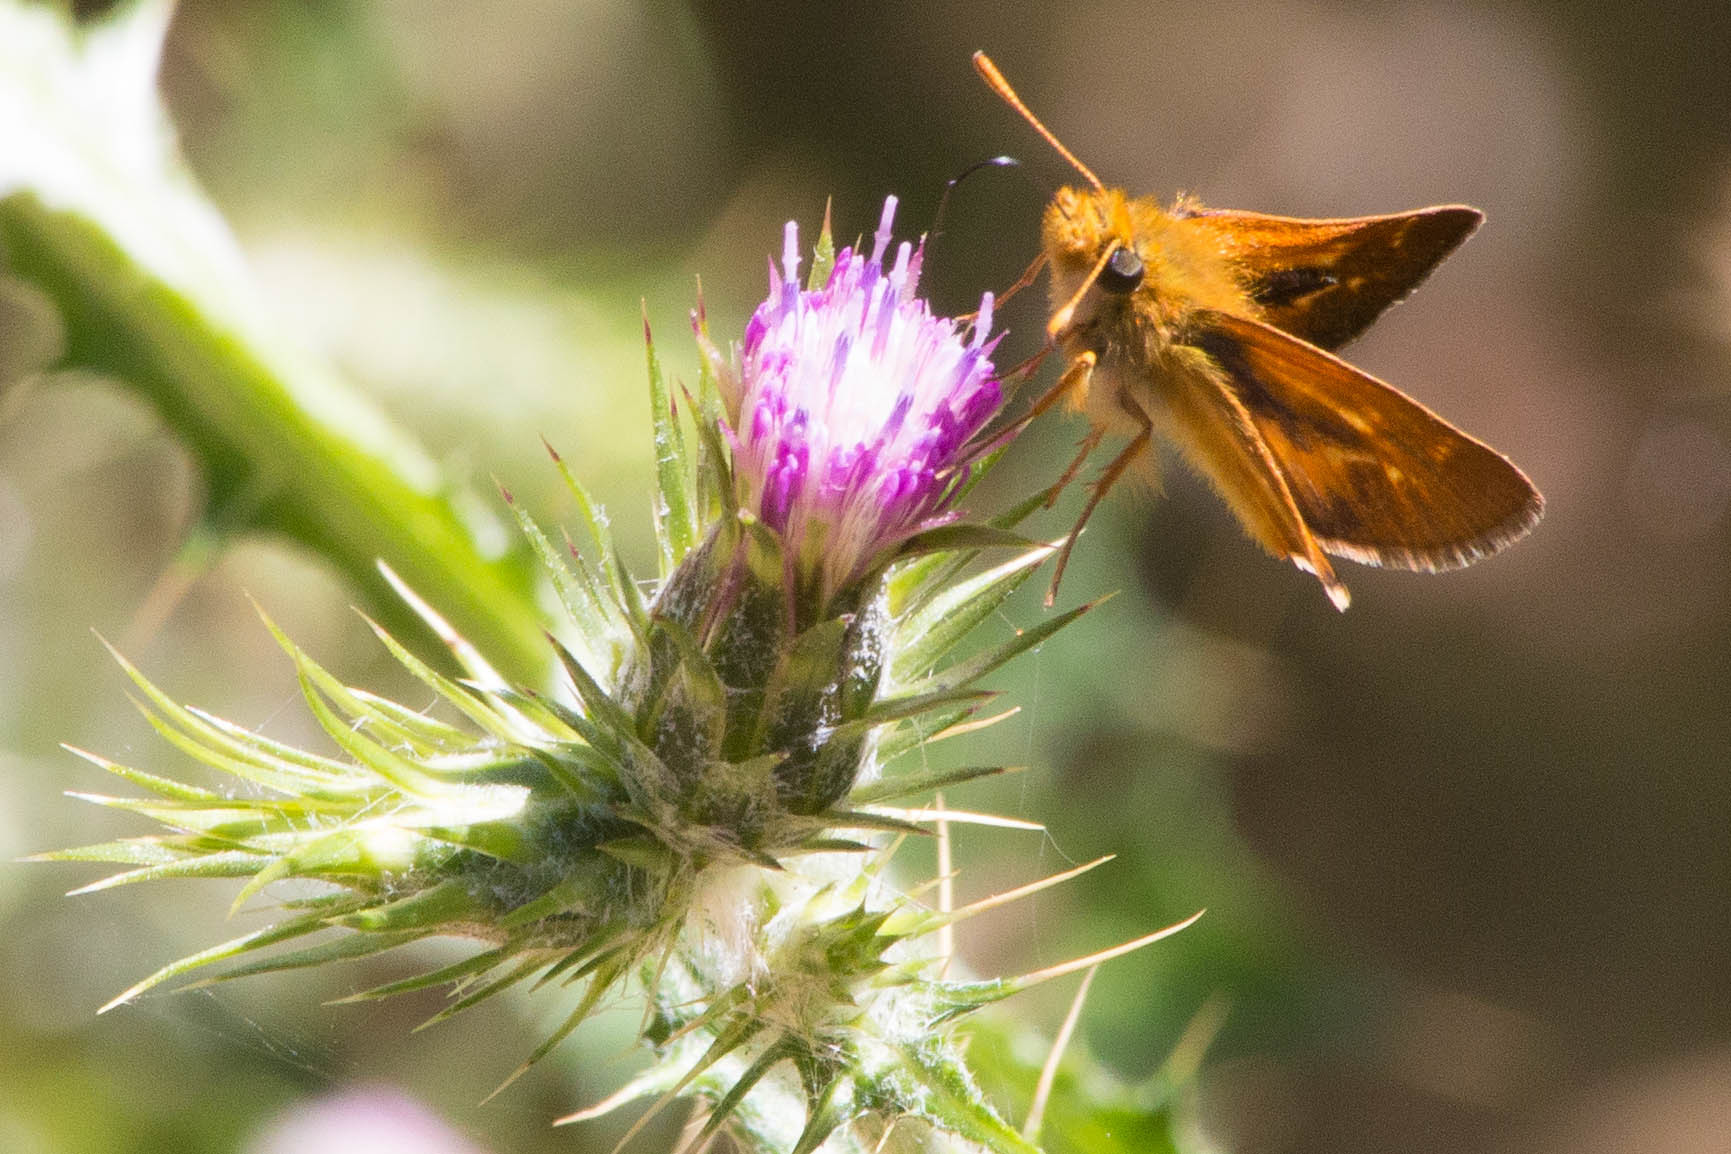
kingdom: Animalia
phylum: Arthropoda
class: Insecta
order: Lepidoptera
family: Hesperiidae
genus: Ochlodes
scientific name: Ochlodes agricola
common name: Rural skipper
